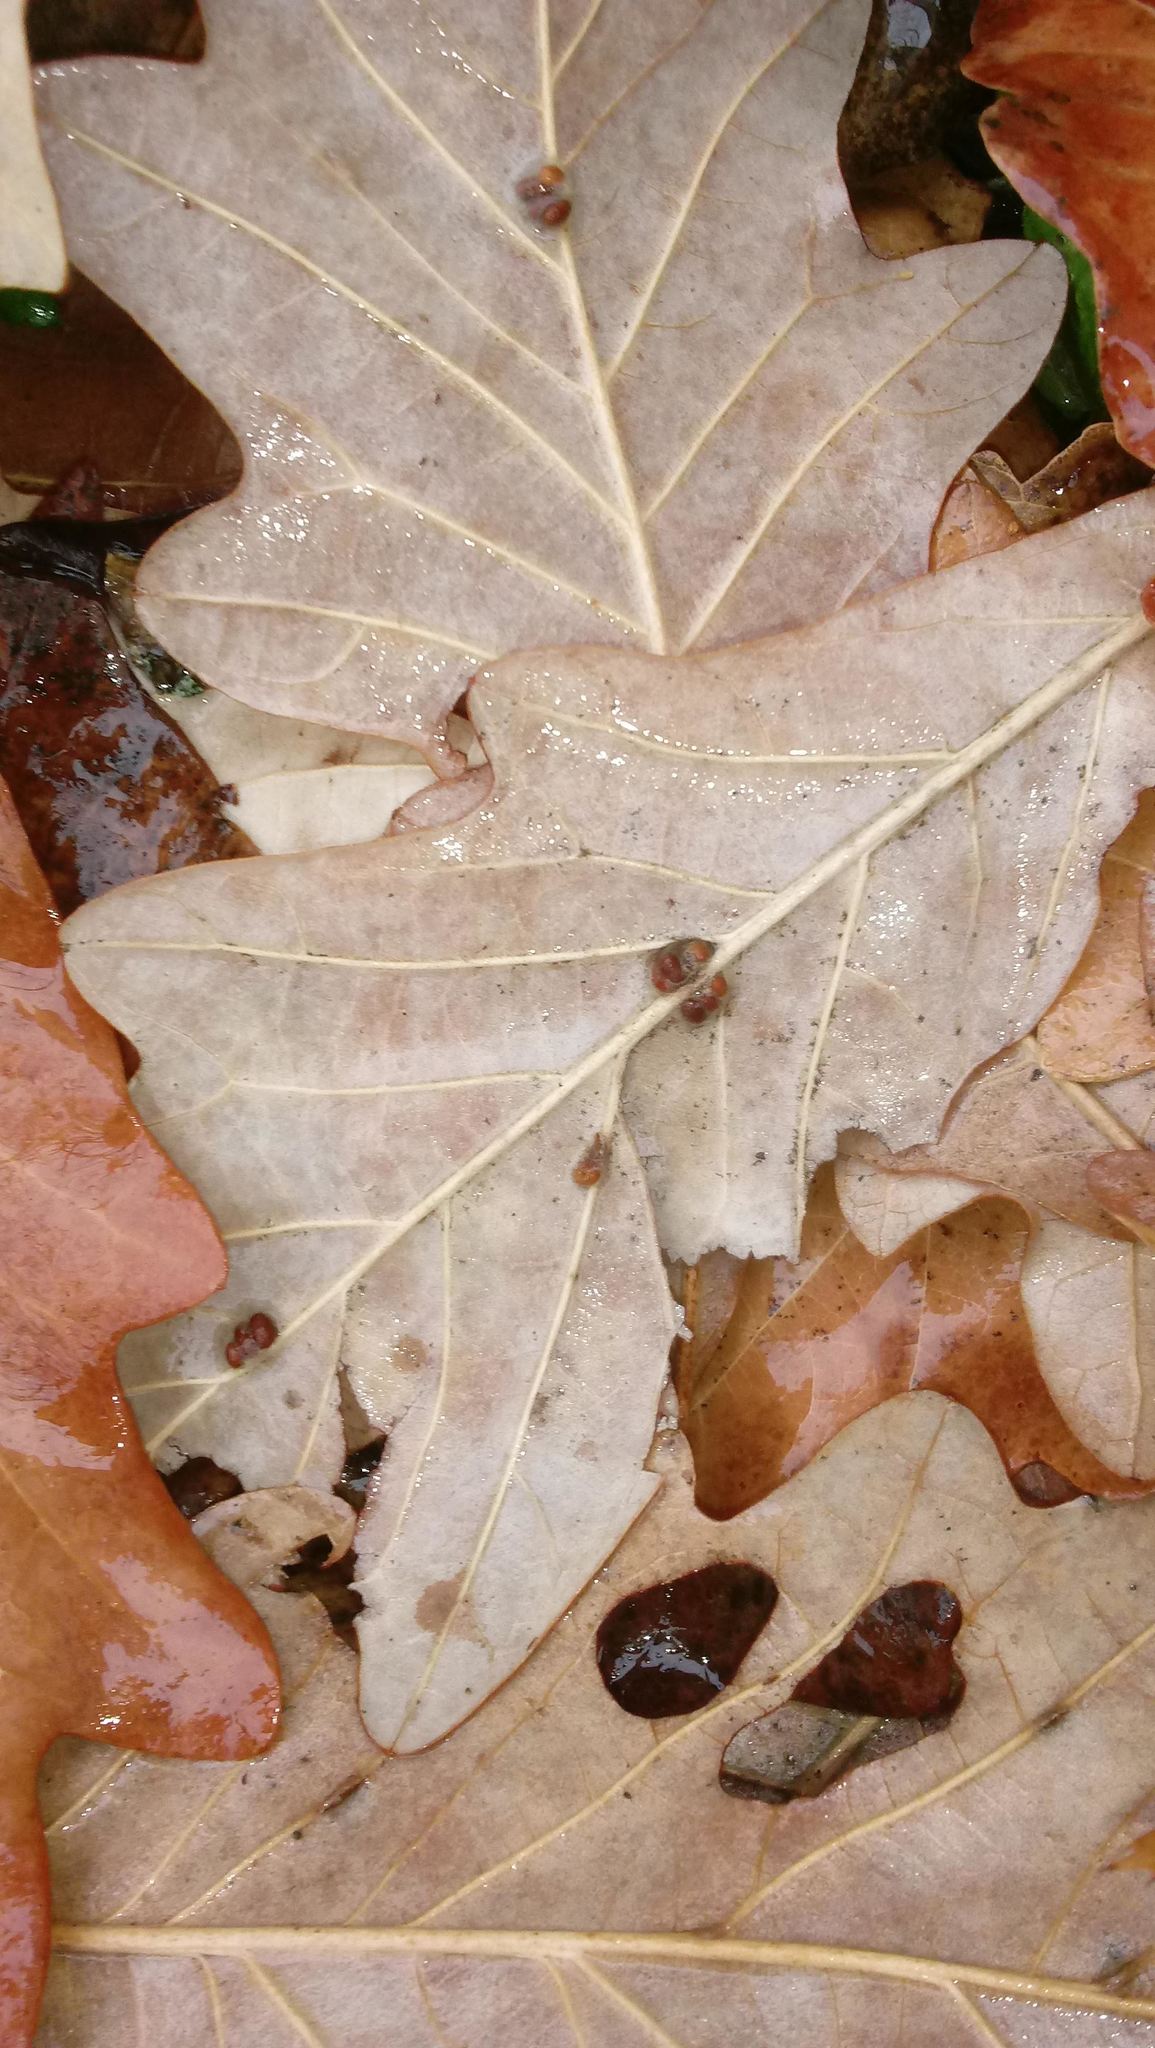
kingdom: Animalia
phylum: Arthropoda
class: Insecta
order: Hymenoptera
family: Cynipidae
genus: Andricus
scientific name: Andricus Druon ignotum
